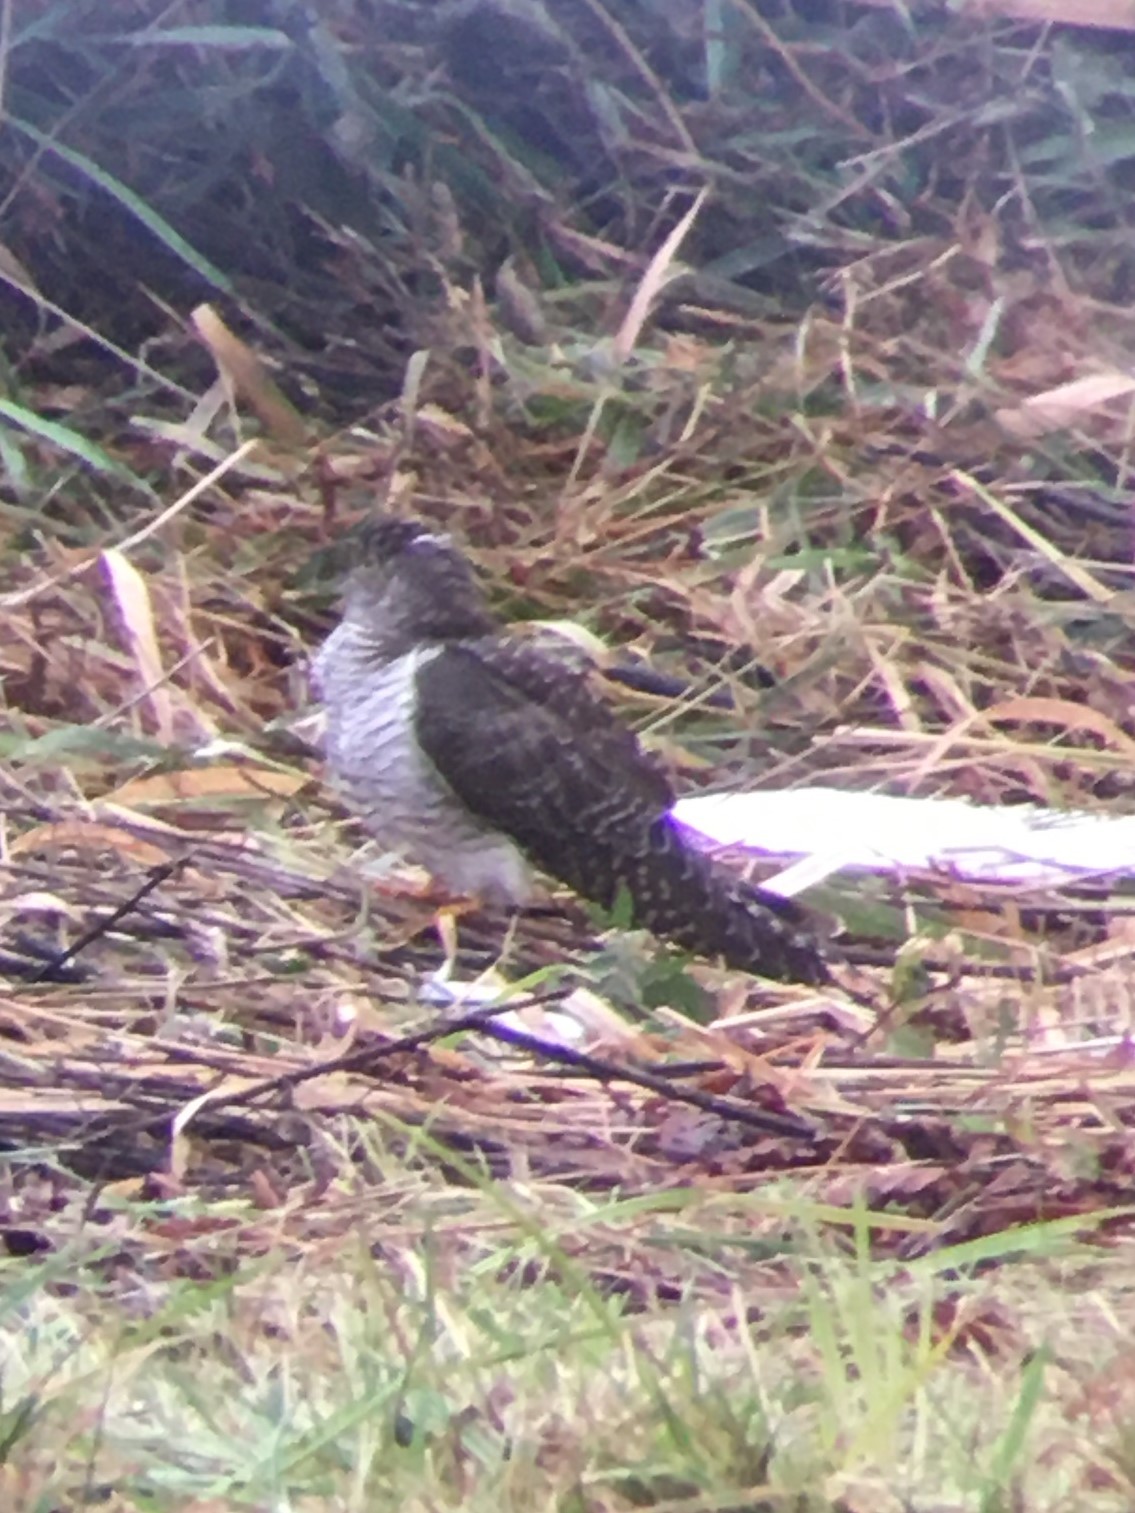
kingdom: Animalia
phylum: Chordata
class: Aves
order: Cuculiformes
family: Cuculidae
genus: Cuculus
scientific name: Cuculus canorus
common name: Common cuckoo
